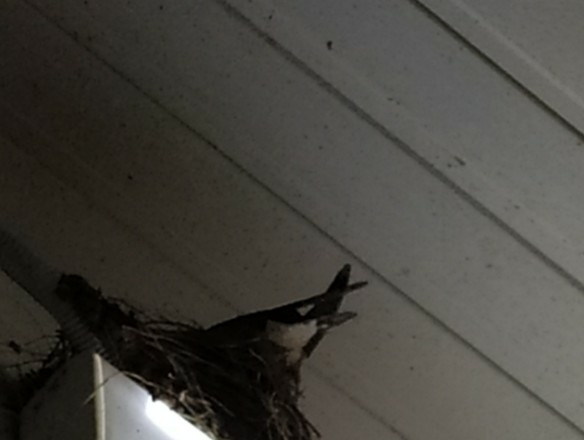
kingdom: Animalia
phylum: Chordata
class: Aves
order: Passeriformes
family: Hirundinidae
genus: Hirundo
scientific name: Hirundo rustica
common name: Barn swallow
